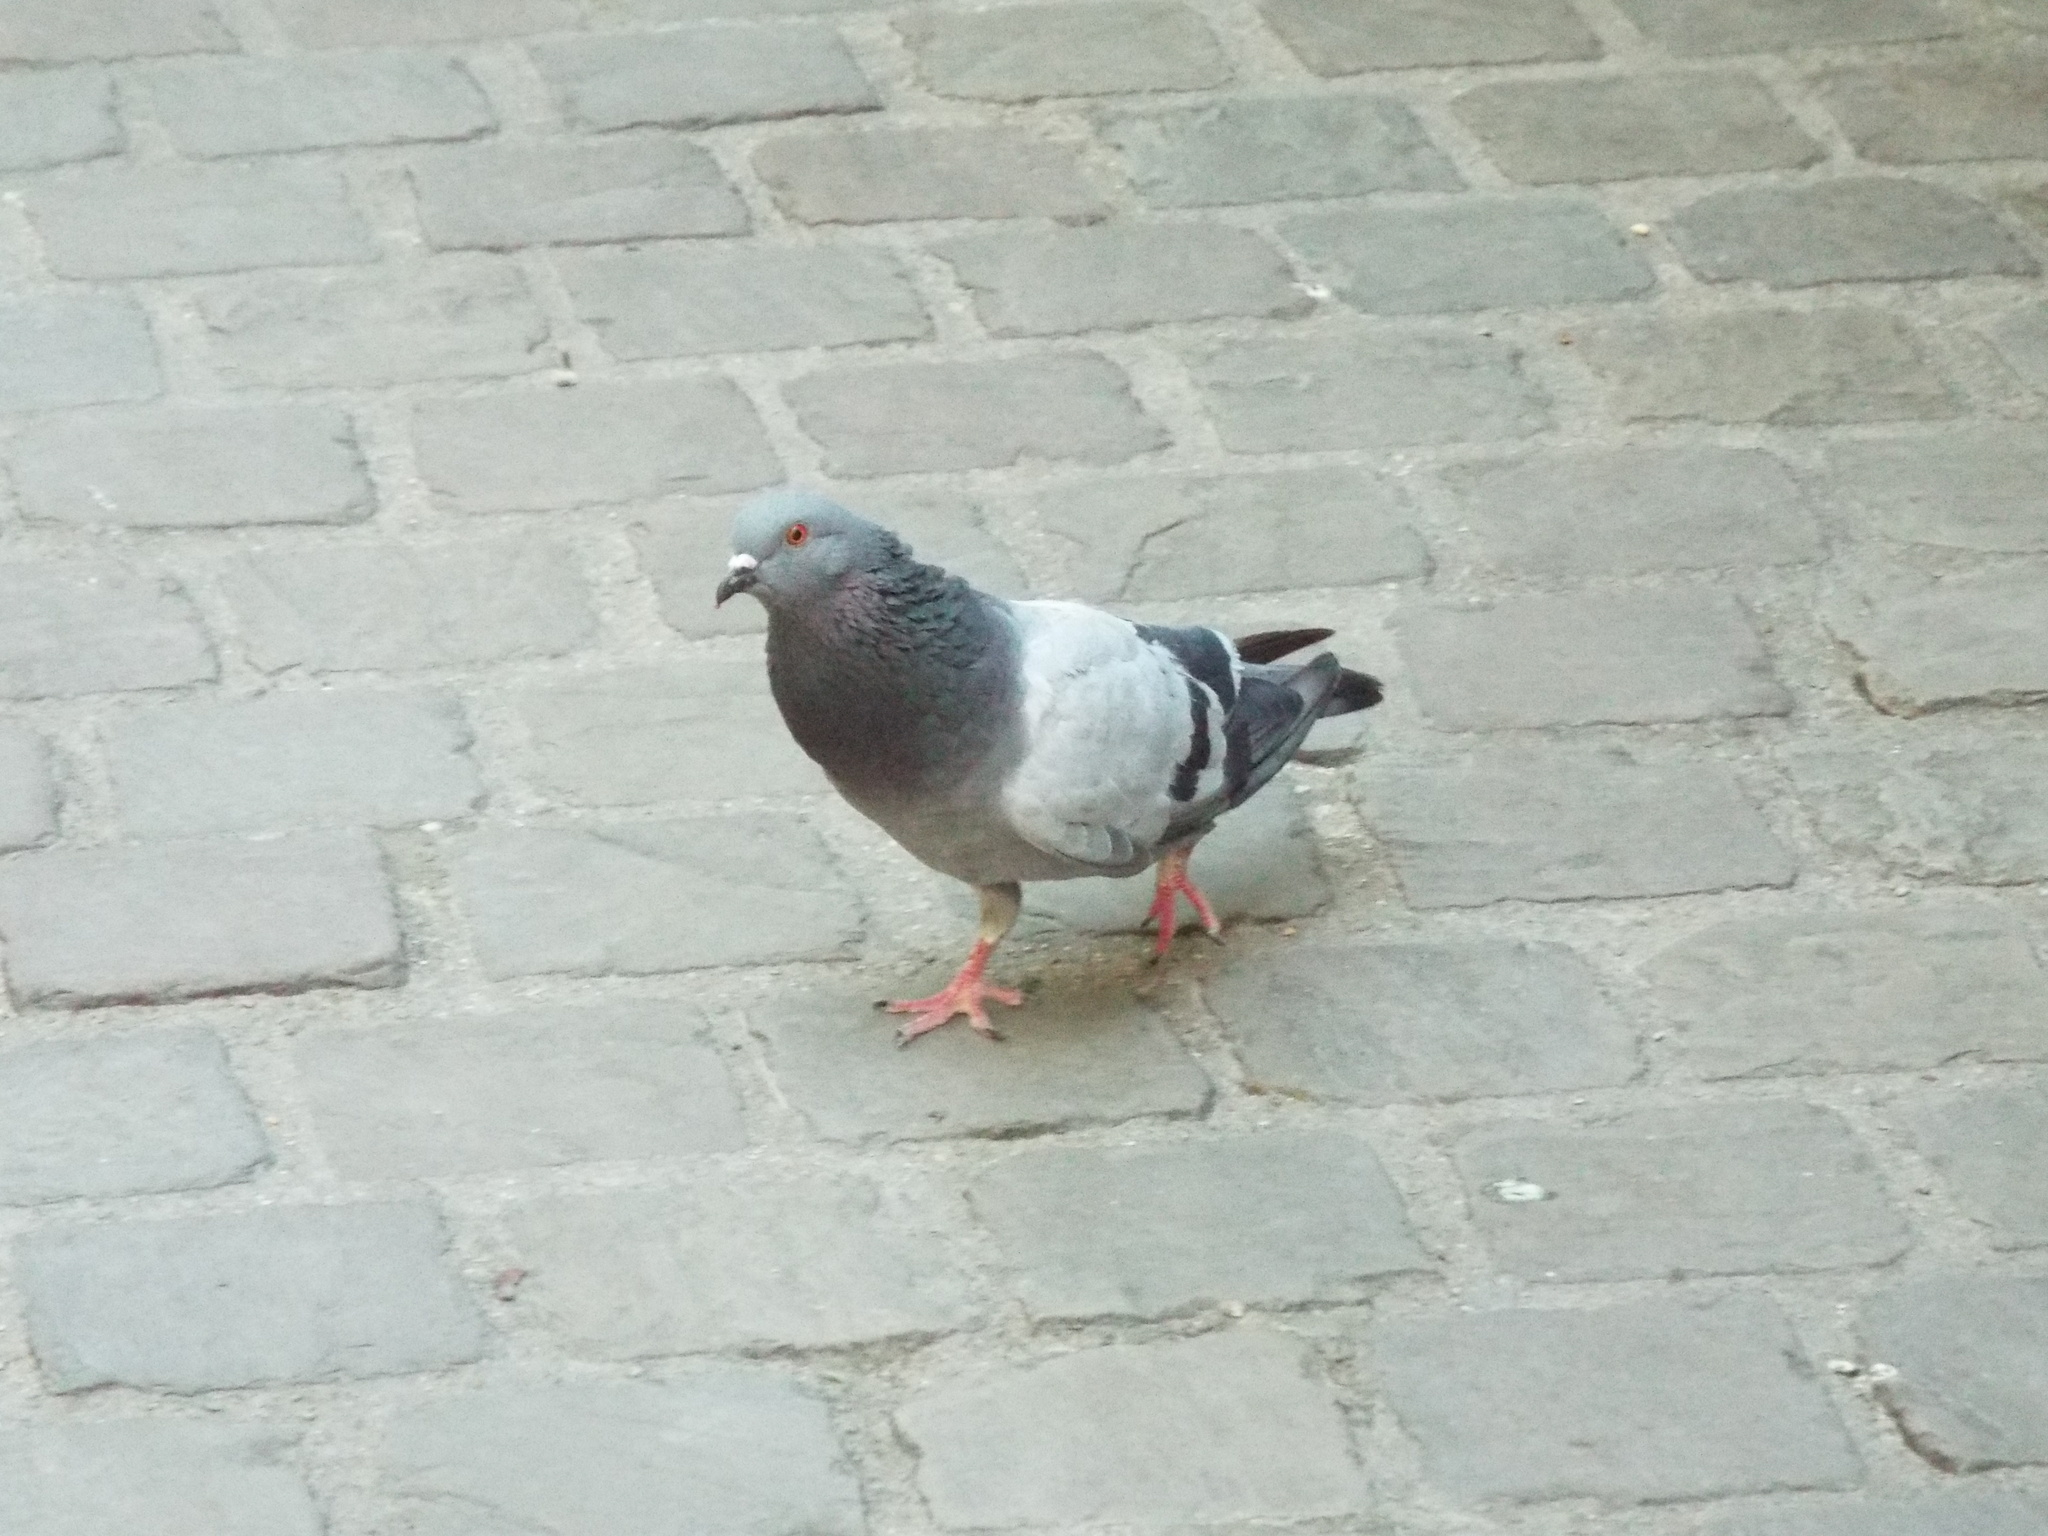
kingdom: Animalia
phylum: Chordata
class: Aves
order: Columbiformes
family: Columbidae
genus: Columba
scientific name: Columba livia
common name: Rock pigeon
